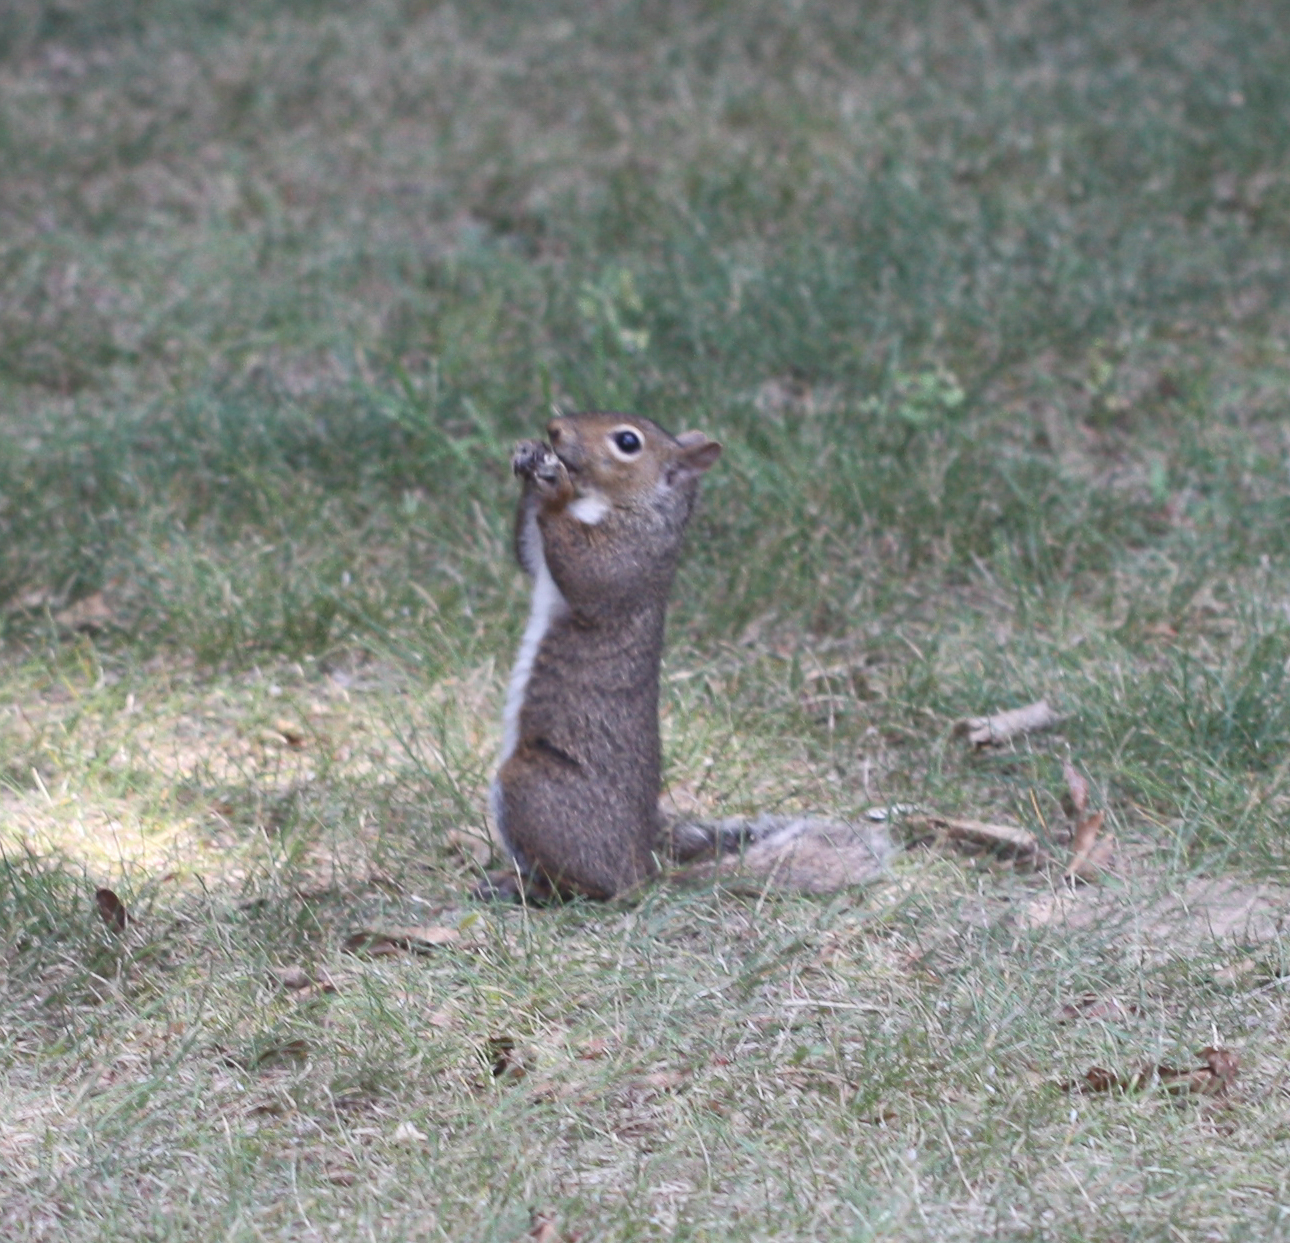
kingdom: Animalia
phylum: Chordata
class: Mammalia
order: Rodentia
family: Sciuridae
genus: Sciurus
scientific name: Sciurus carolinensis
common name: Eastern gray squirrel
